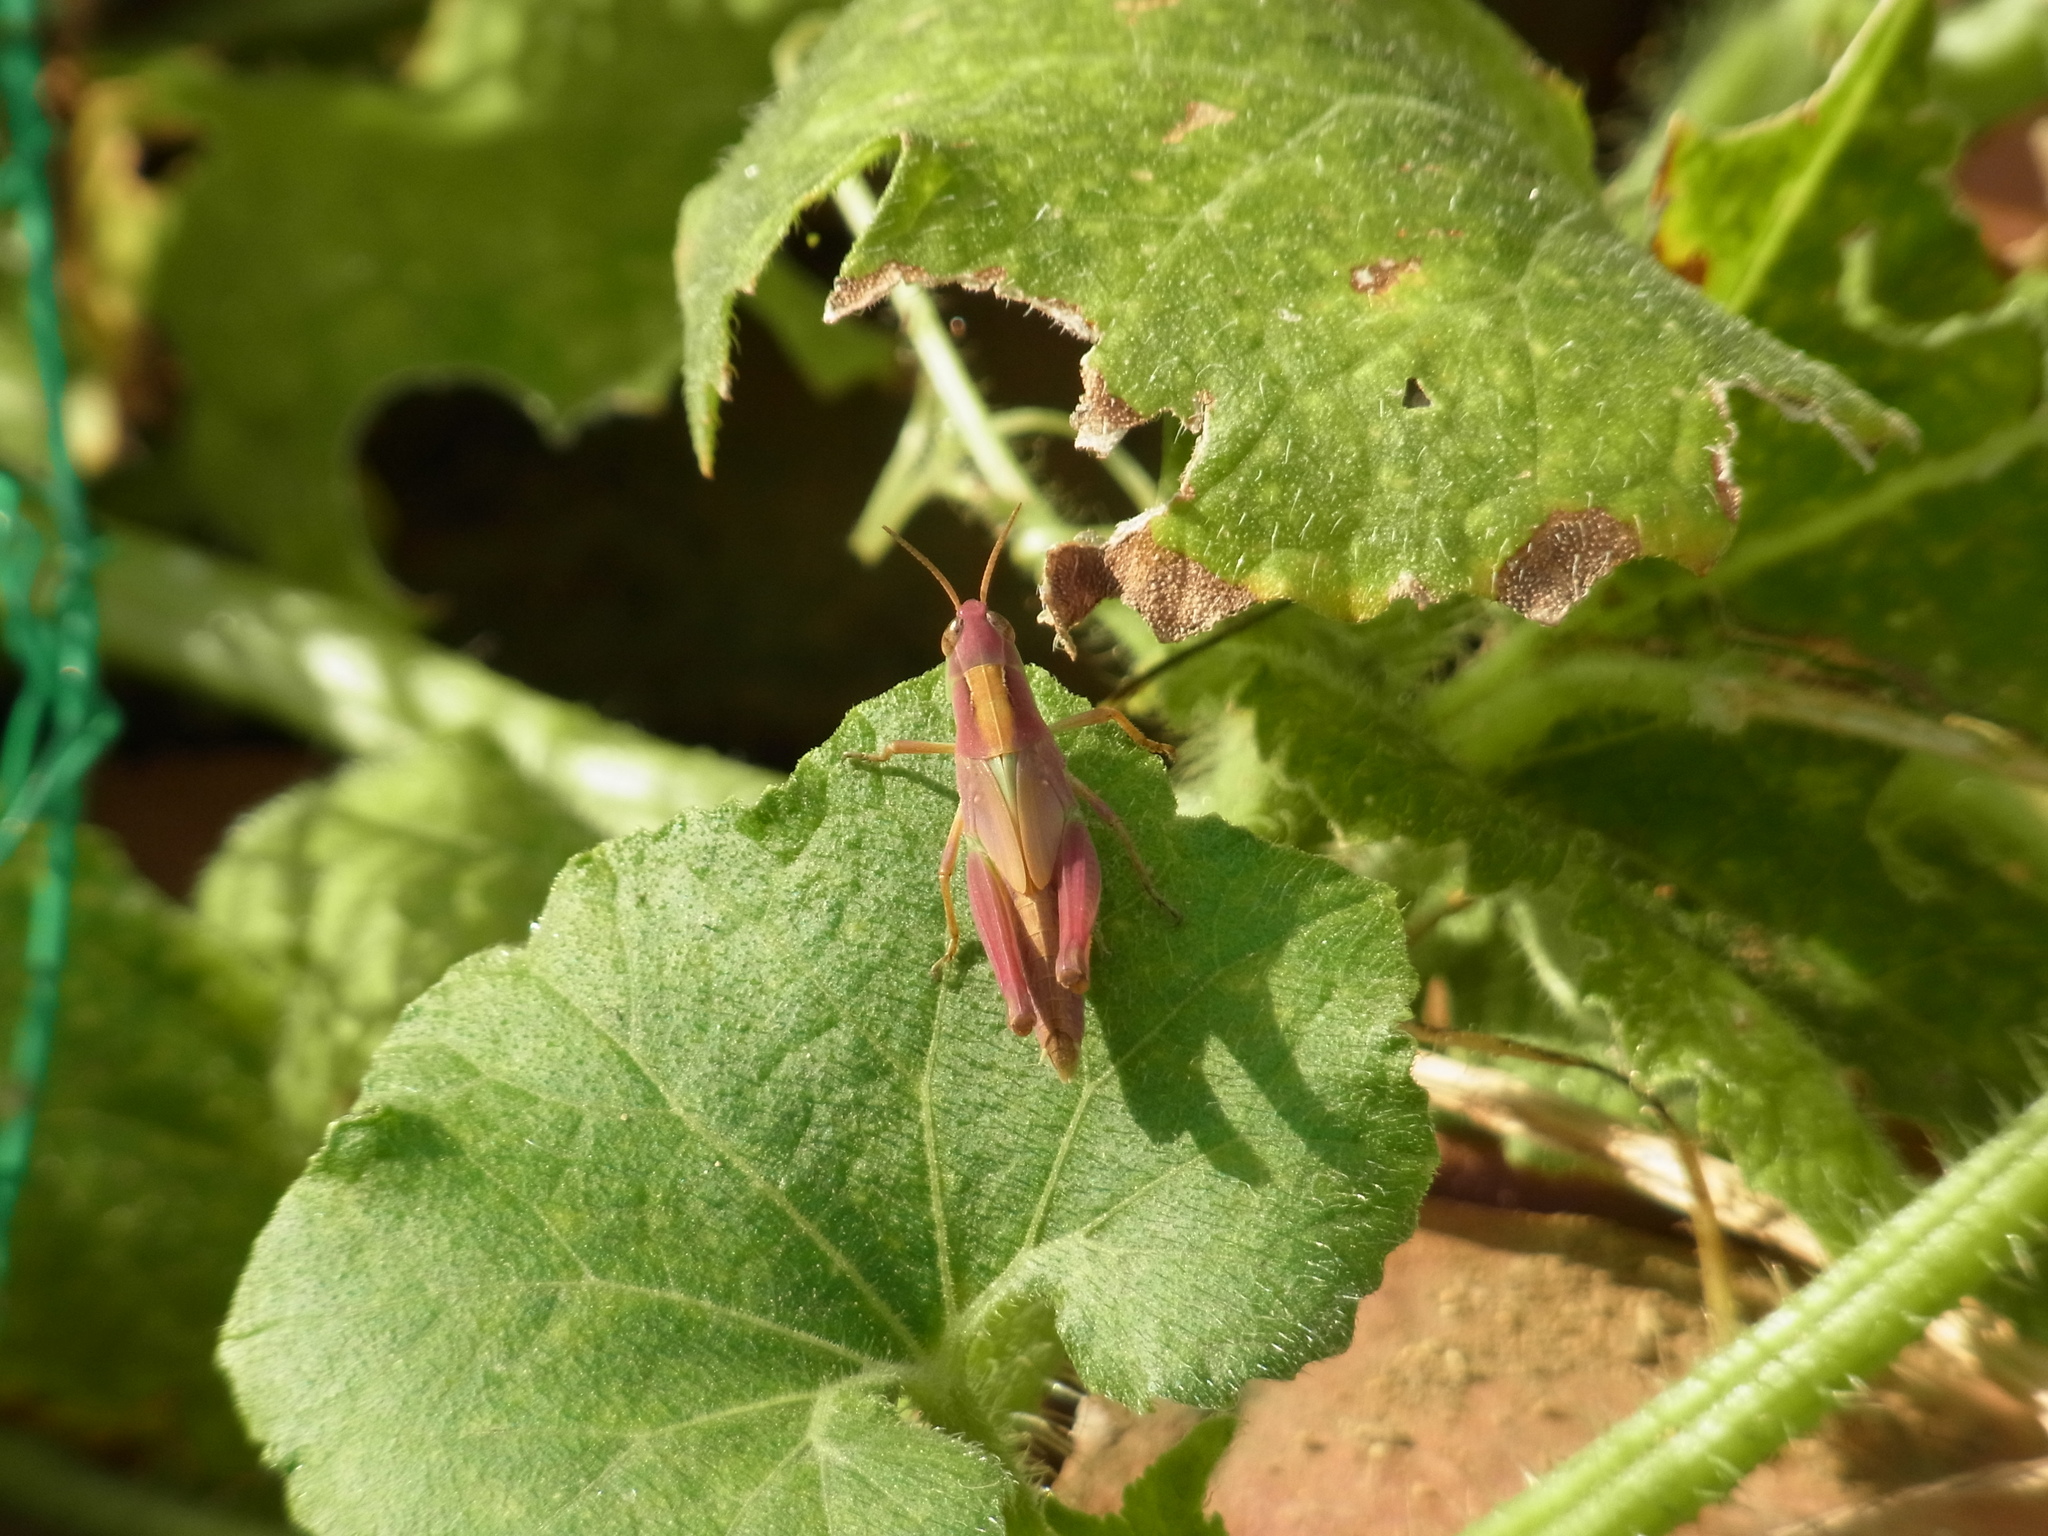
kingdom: Animalia
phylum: Arthropoda
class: Insecta
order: Orthoptera
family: Acrididae
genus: Aiolopus
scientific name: Aiolopus thalassinus
